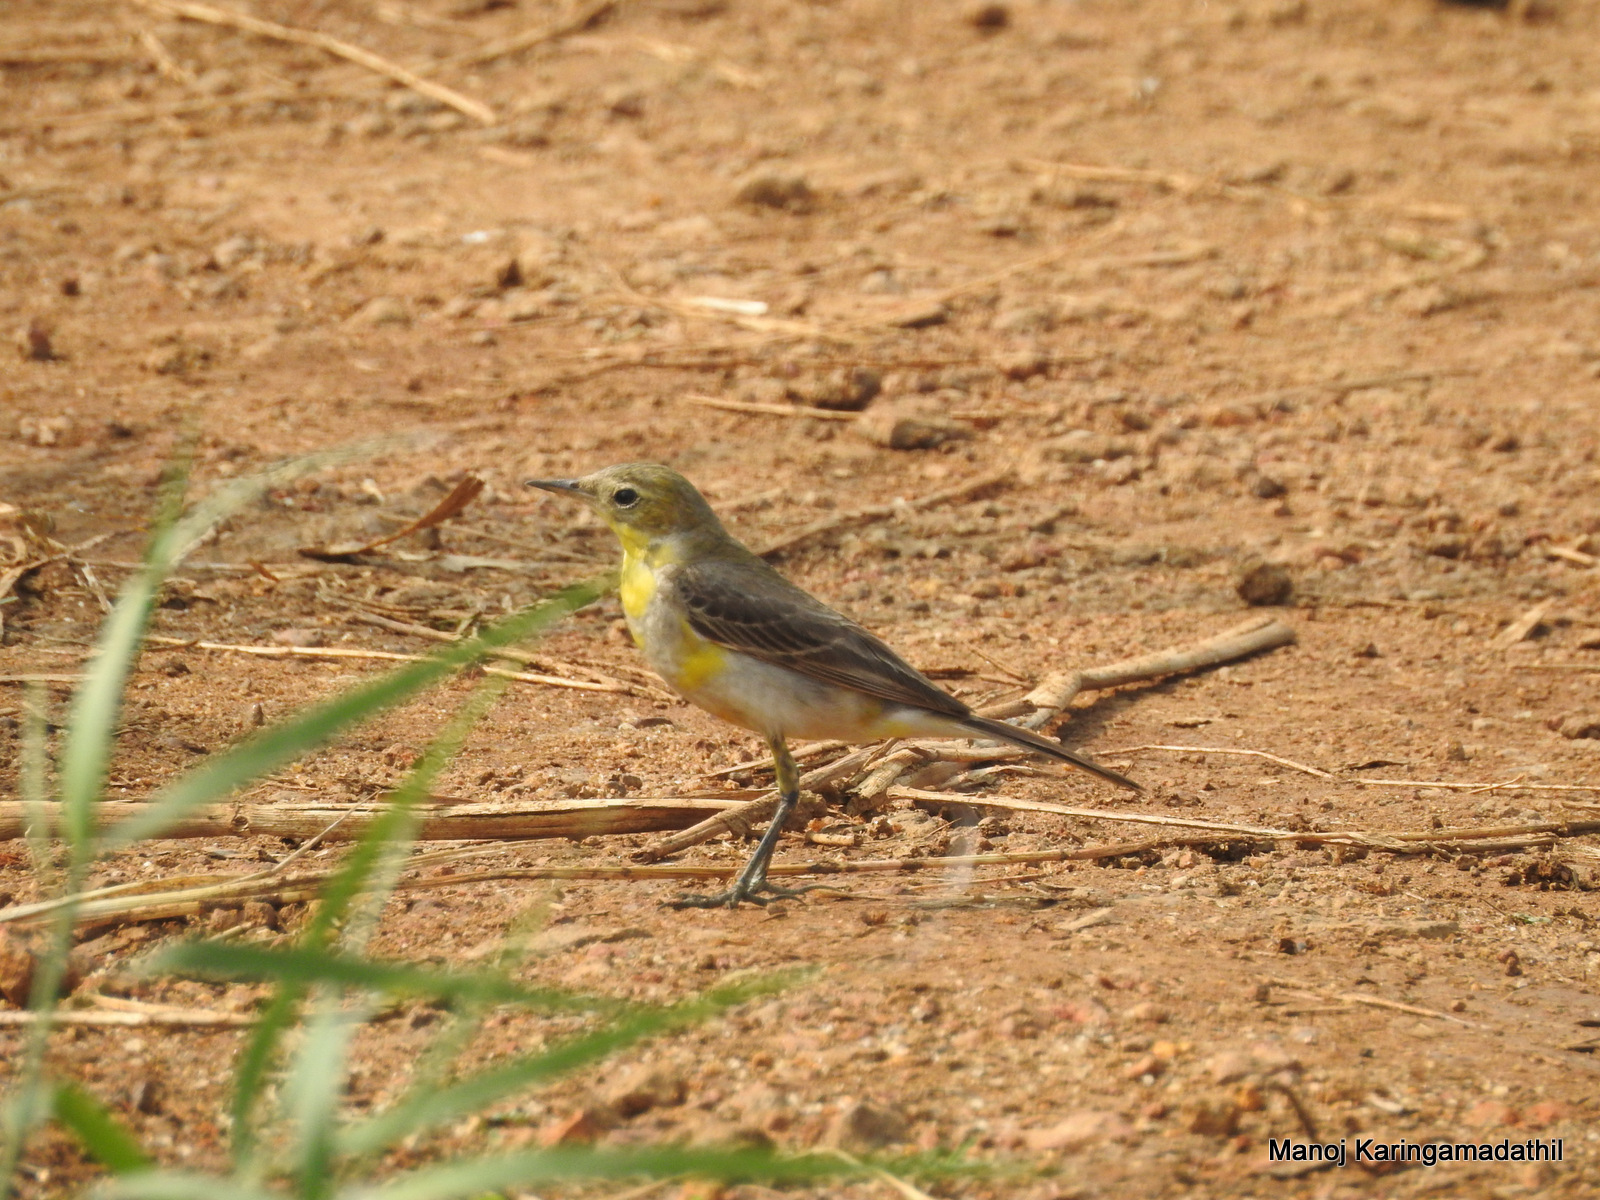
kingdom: Animalia
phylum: Chordata
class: Aves
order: Passeriformes
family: Motacillidae
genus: Motacilla
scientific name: Motacilla flava
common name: Western yellow wagtail
